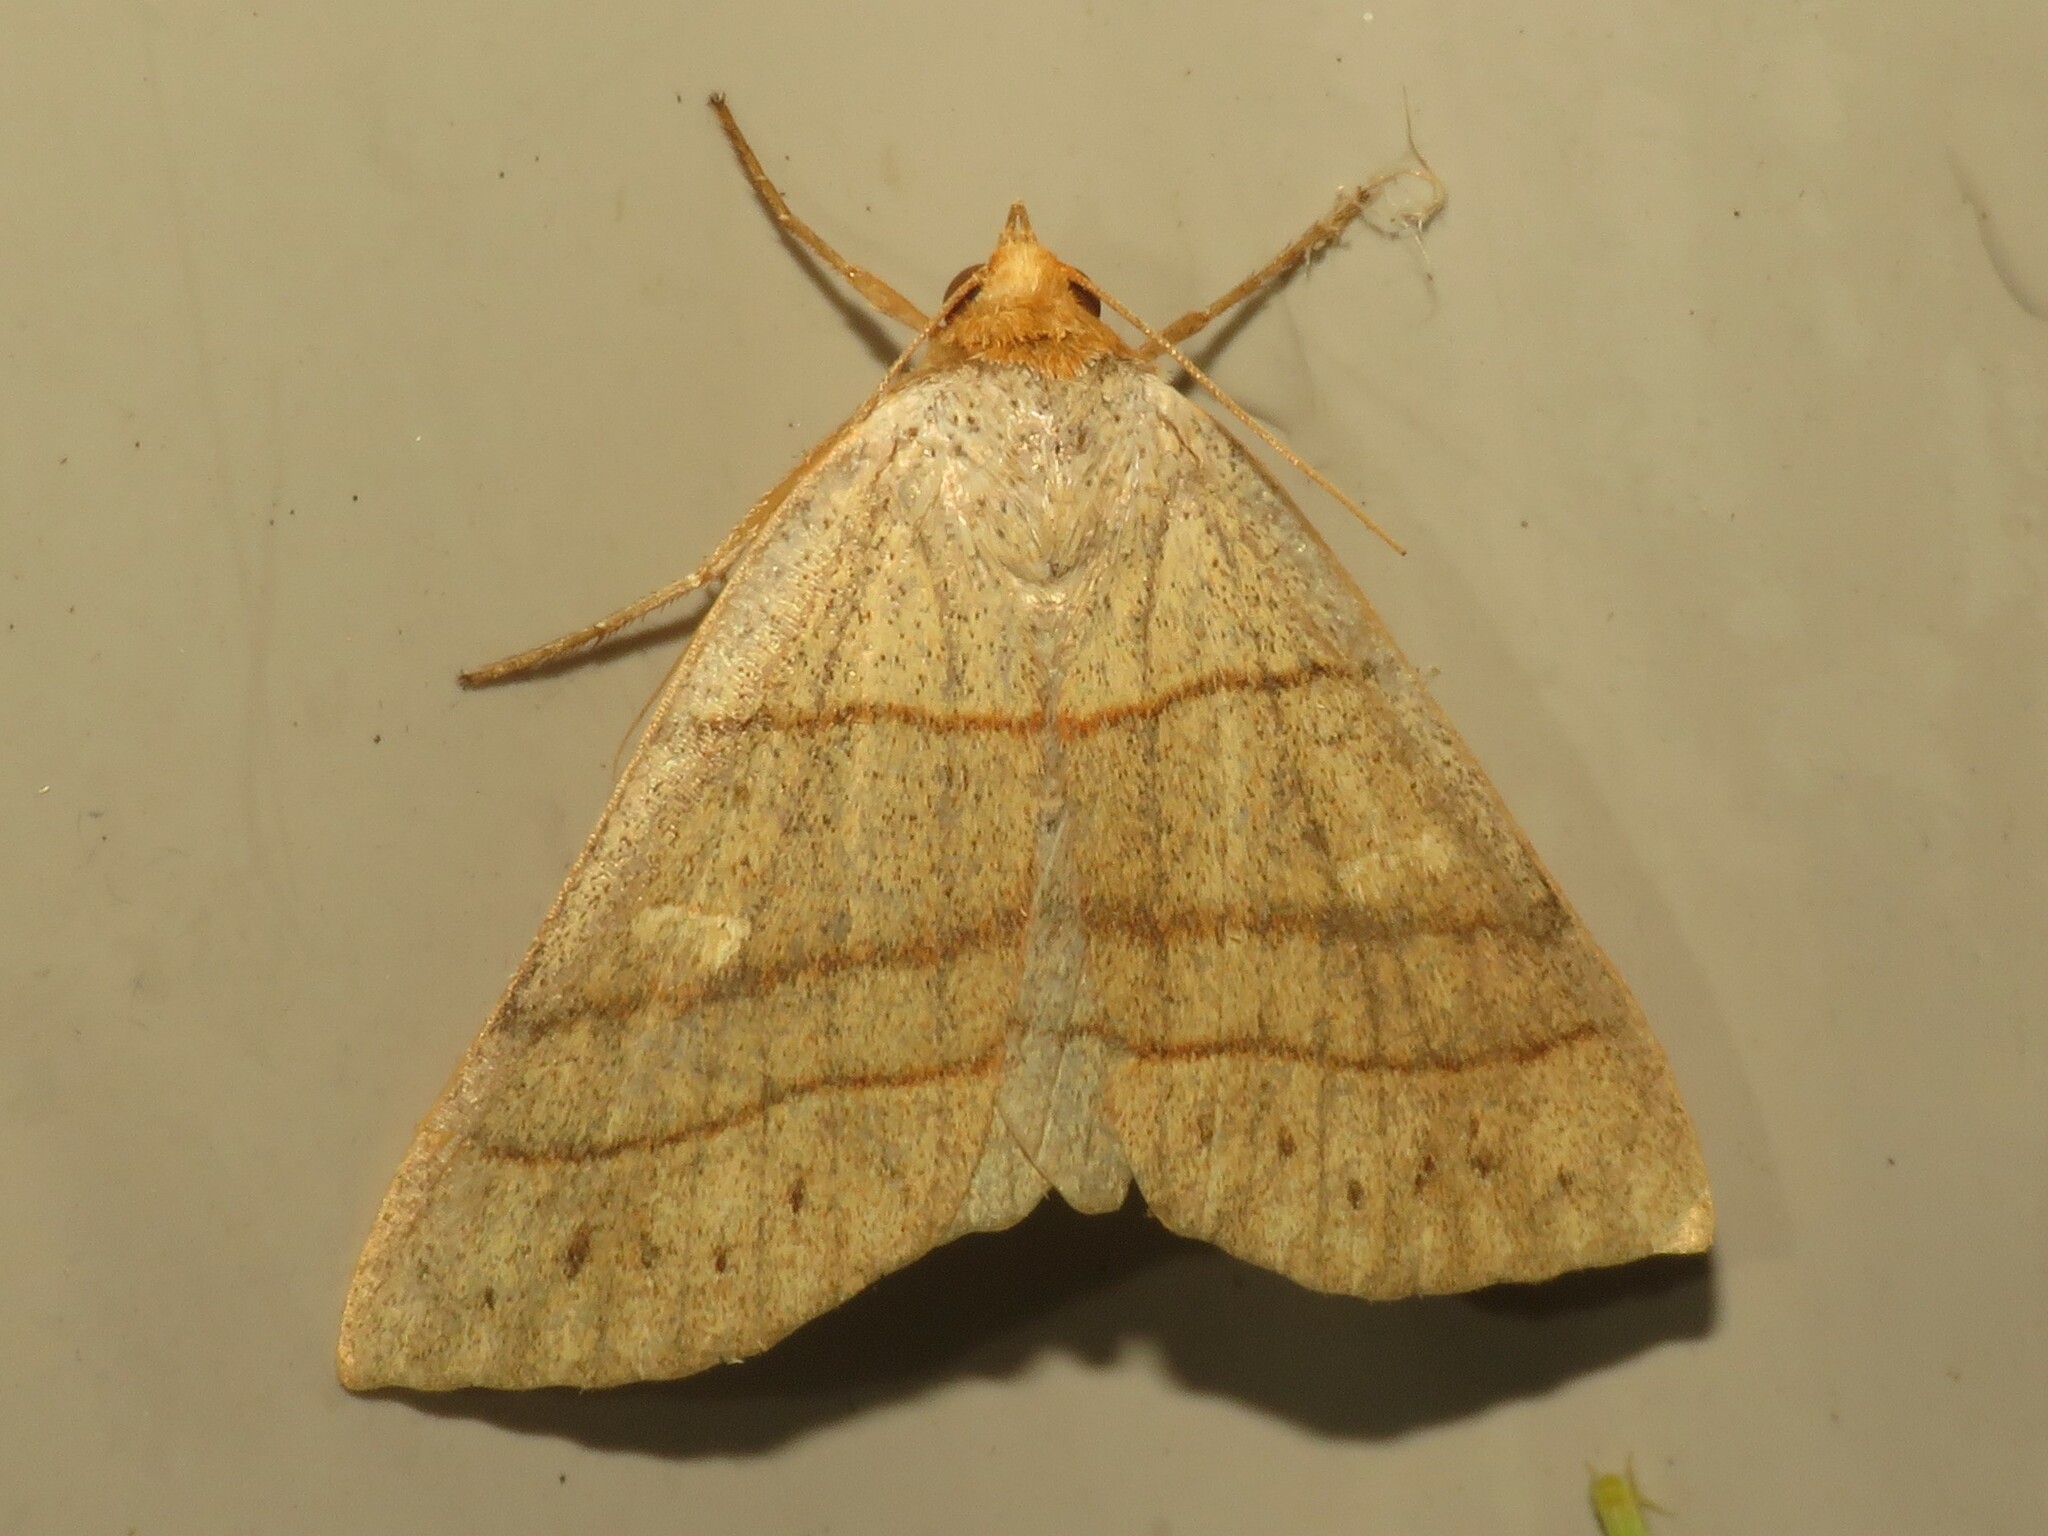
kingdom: Animalia
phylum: Arthropoda
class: Insecta
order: Lepidoptera
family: Erebidae
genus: Panopoda
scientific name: Panopoda rufimargo
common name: Red-lined panopoda moth
